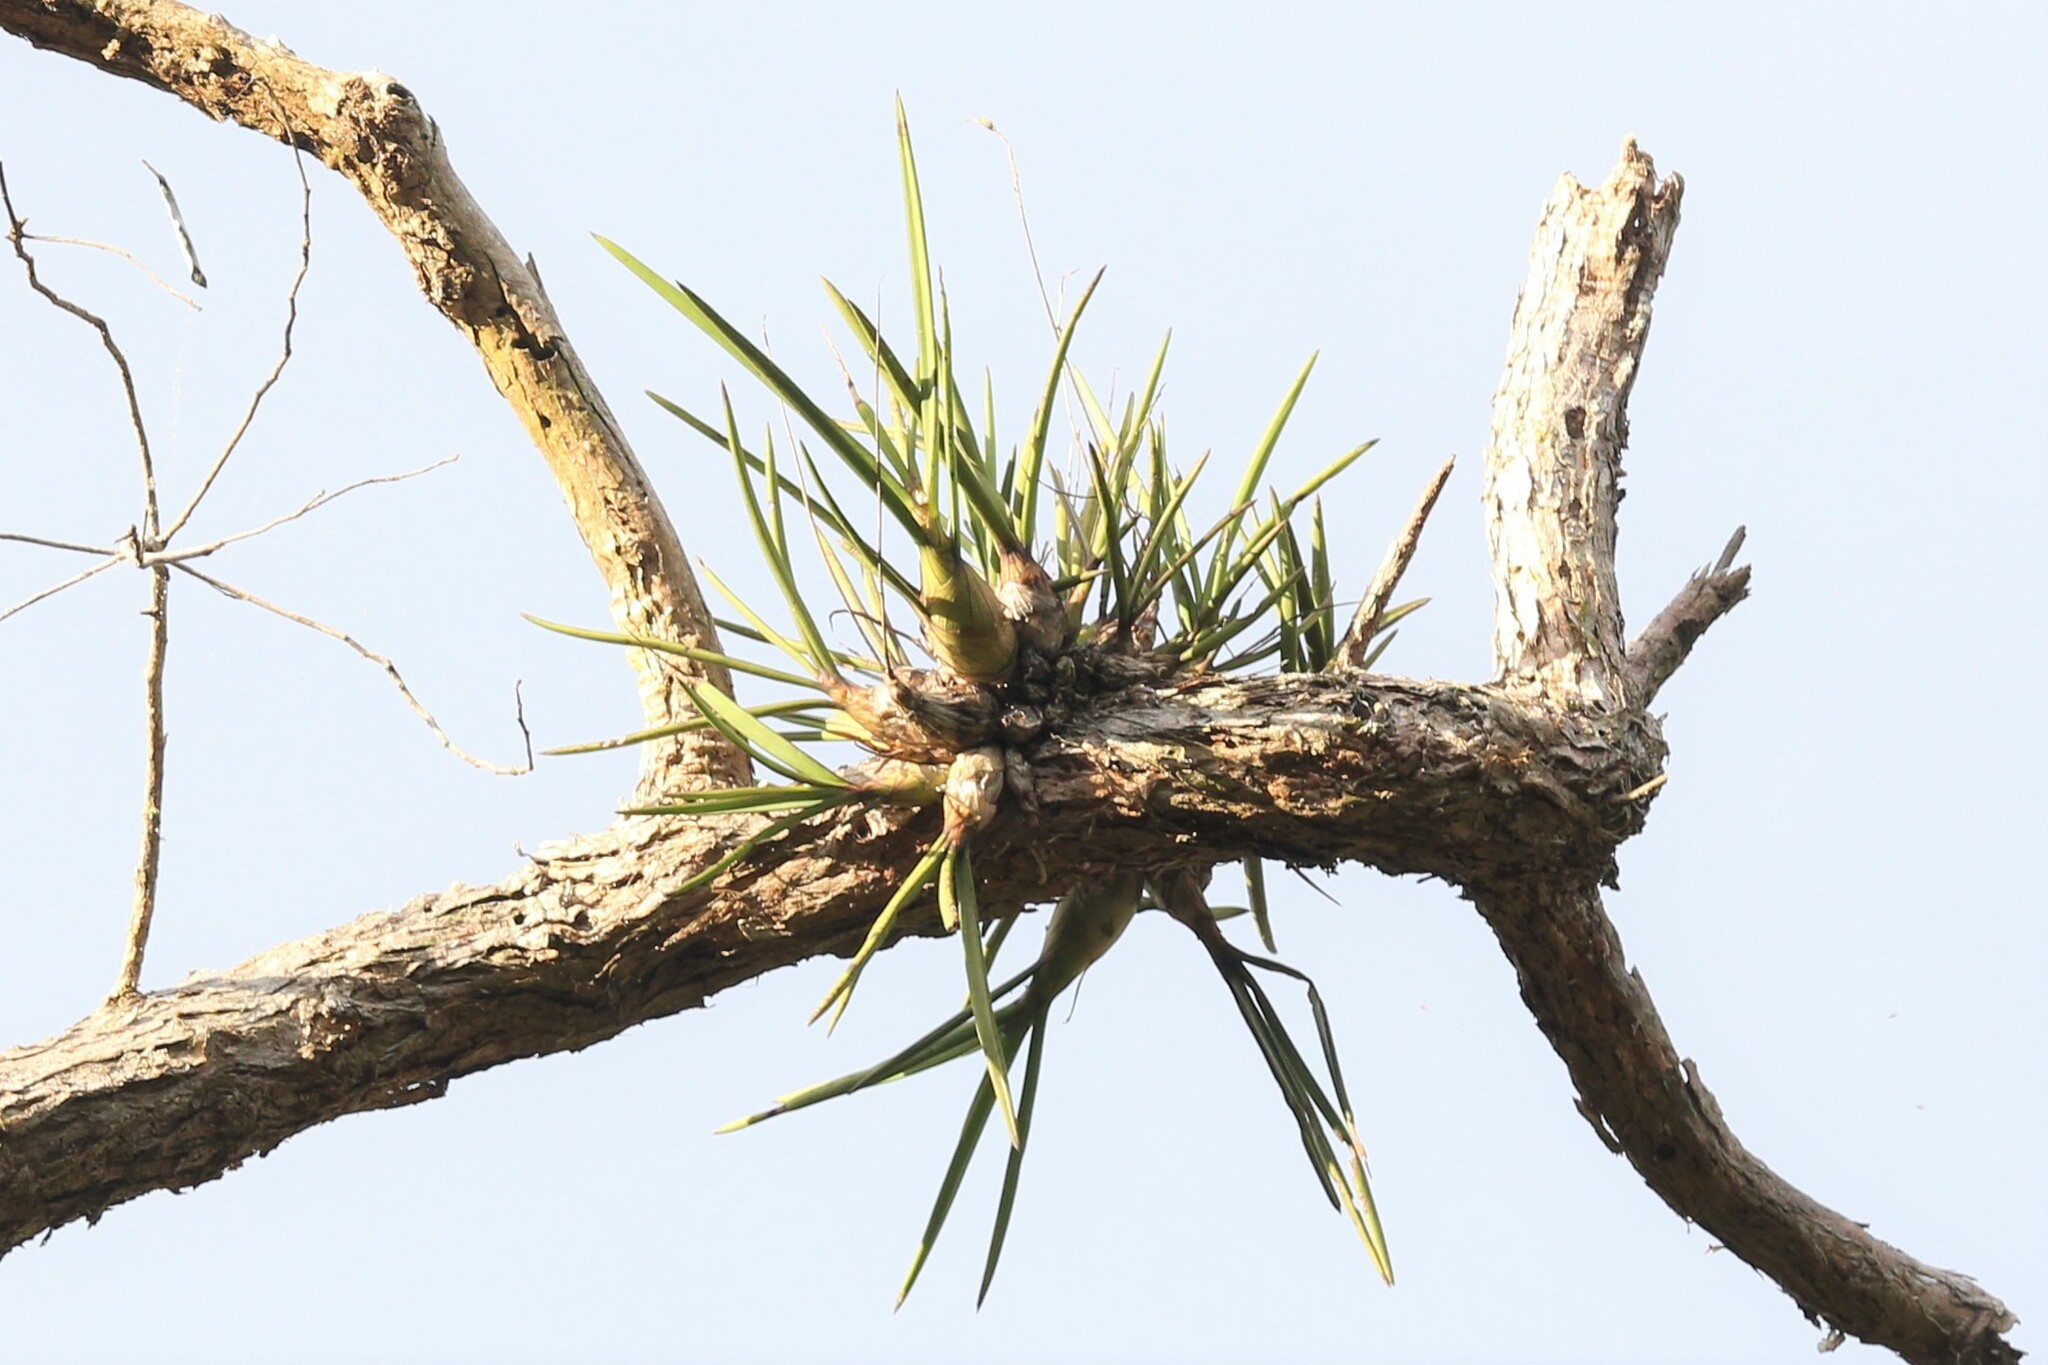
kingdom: Plantae
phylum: Tracheophyta
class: Liliopsida
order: Asparagales
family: Orchidaceae
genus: Dendrobium
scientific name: Dendrobium canaliculatum
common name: Tea tree orchid
